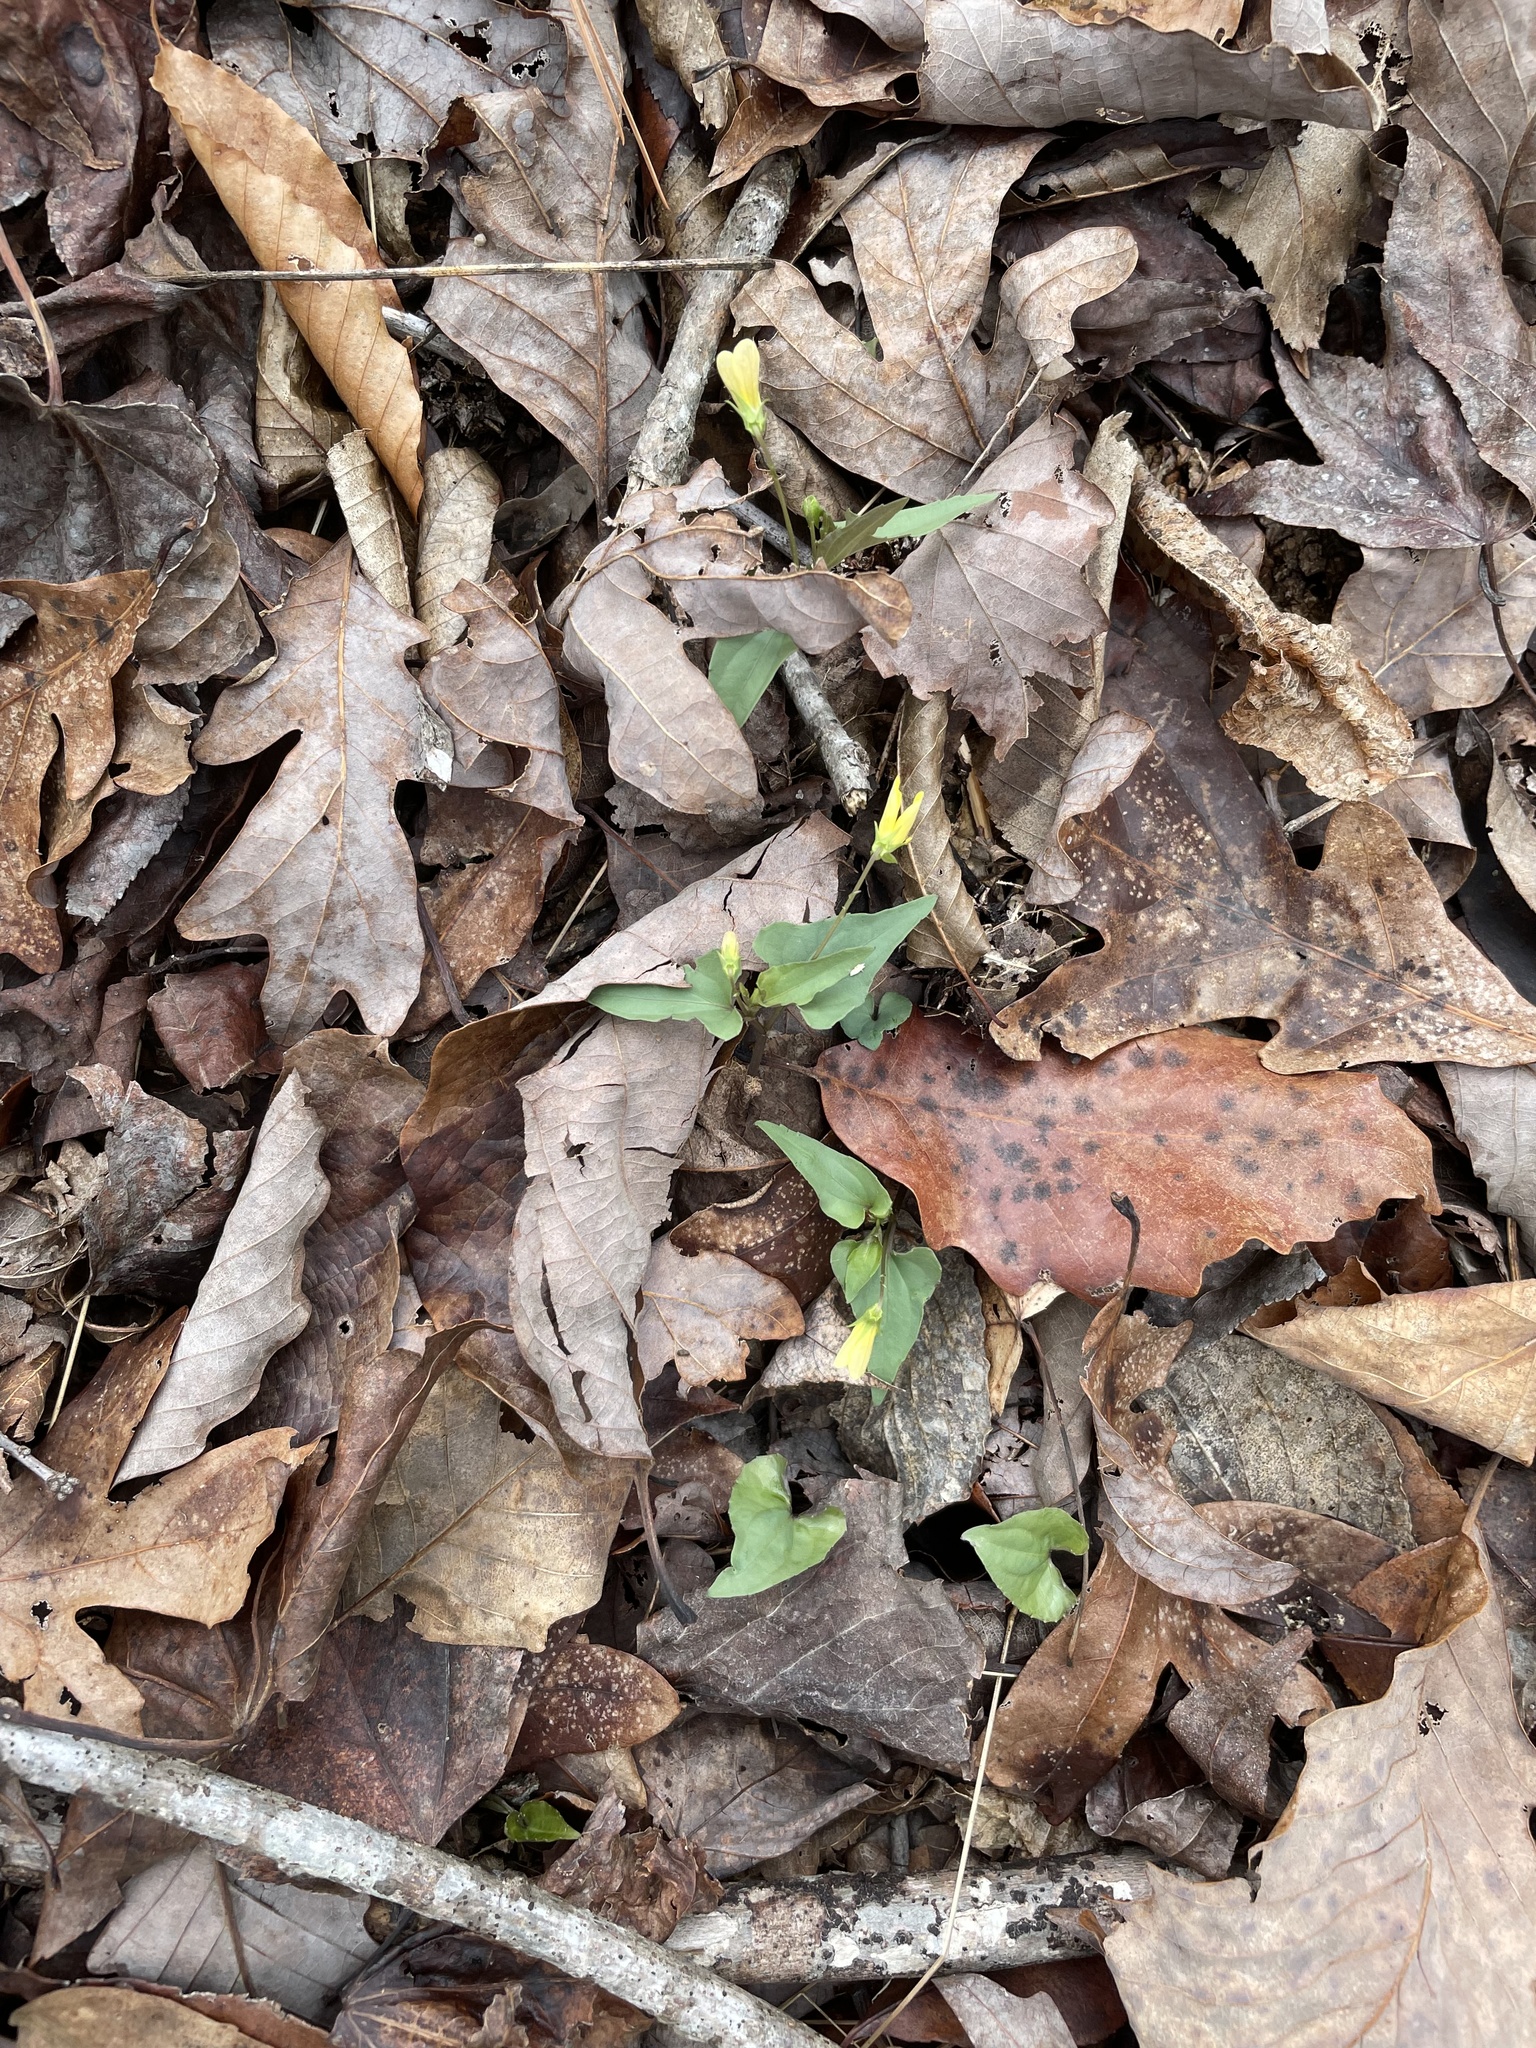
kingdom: Plantae
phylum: Tracheophyta
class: Magnoliopsida
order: Malpighiales
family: Violaceae
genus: Viola
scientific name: Viola hastata
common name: Spear-leaf violet
